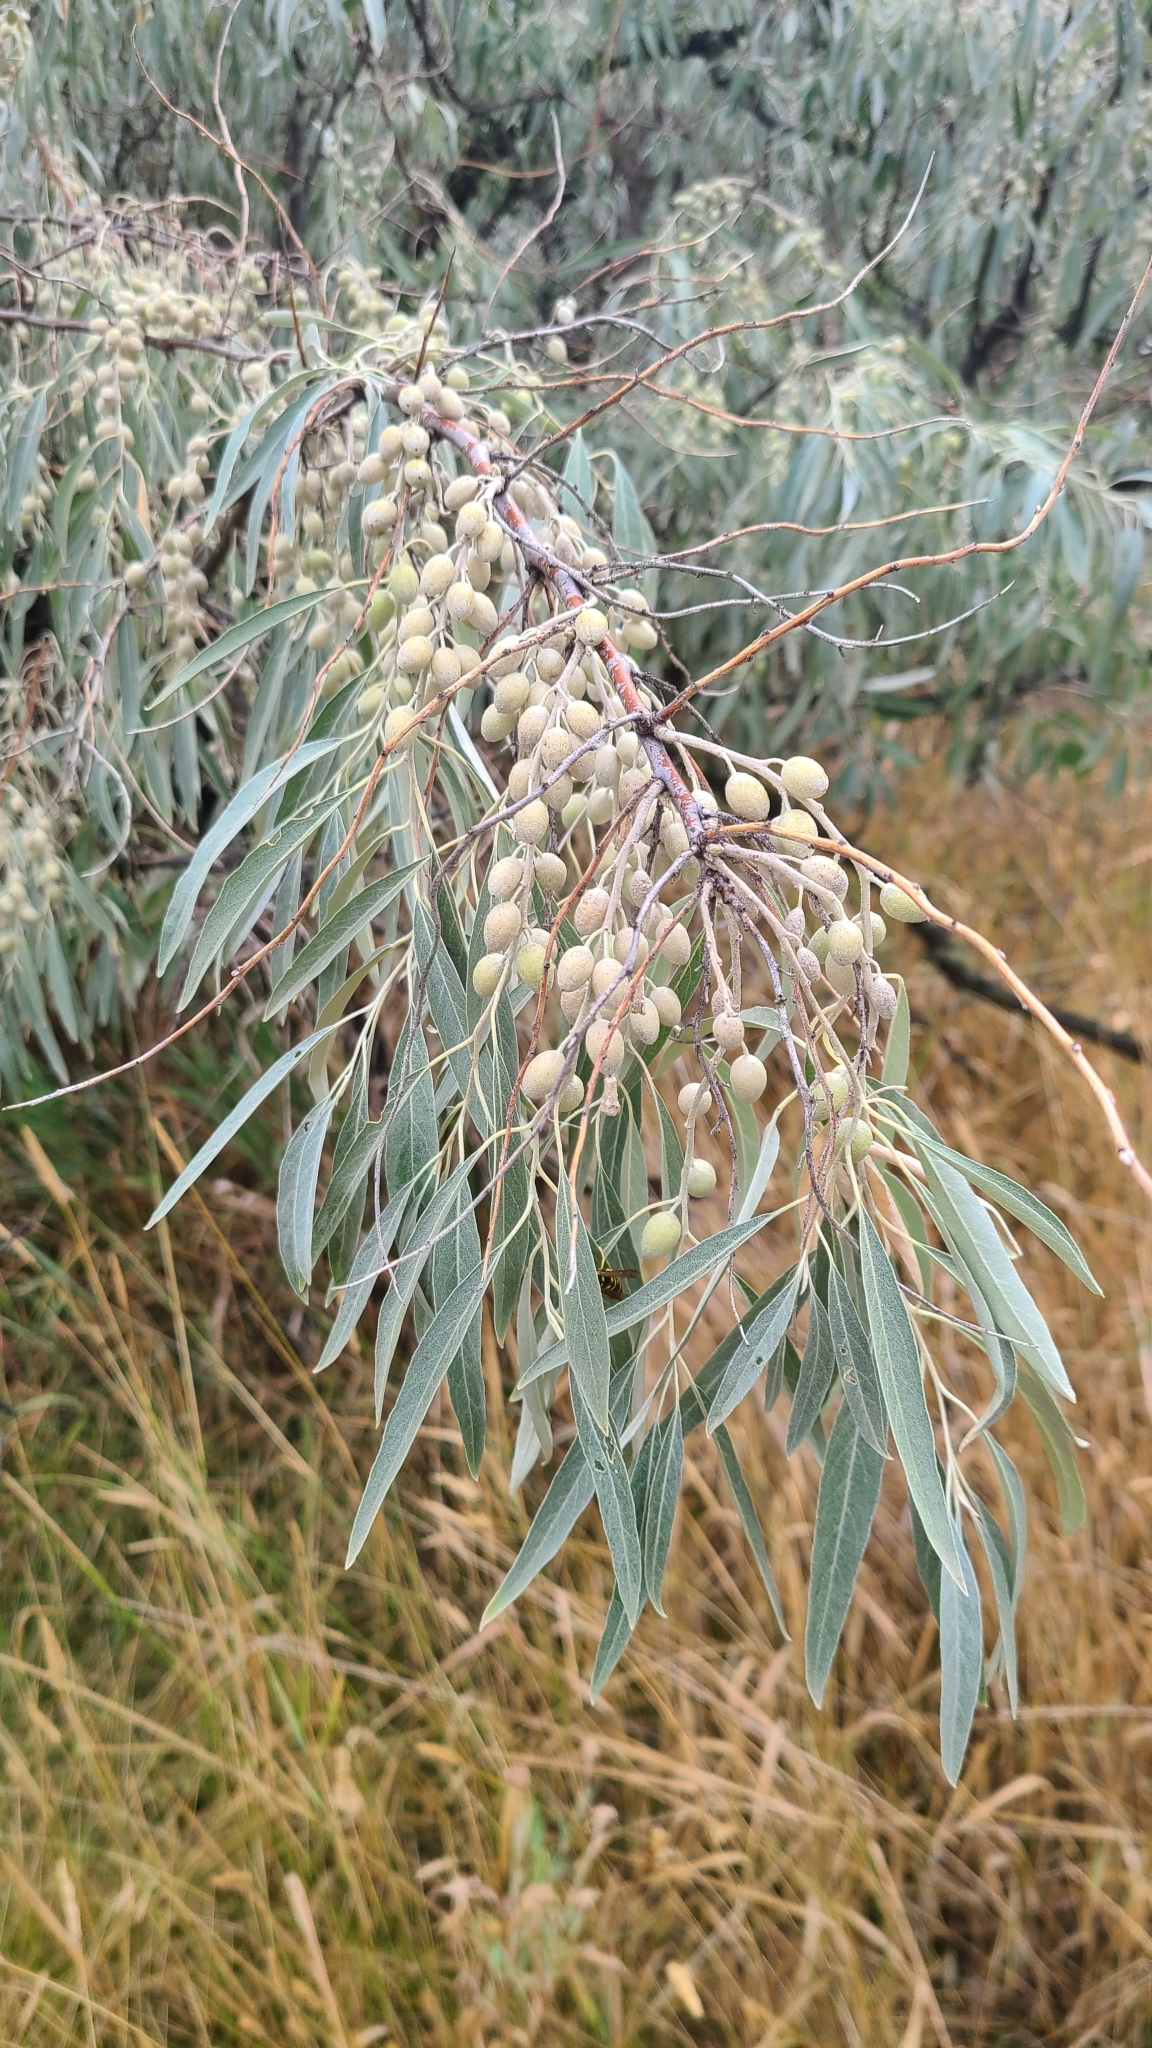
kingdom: Plantae
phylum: Tracheophyta
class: Magnoliopsida
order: Rosales
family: Elaeagnaceae
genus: Elaeagnus
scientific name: Elaeagnus angustifolia
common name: Russian olive
